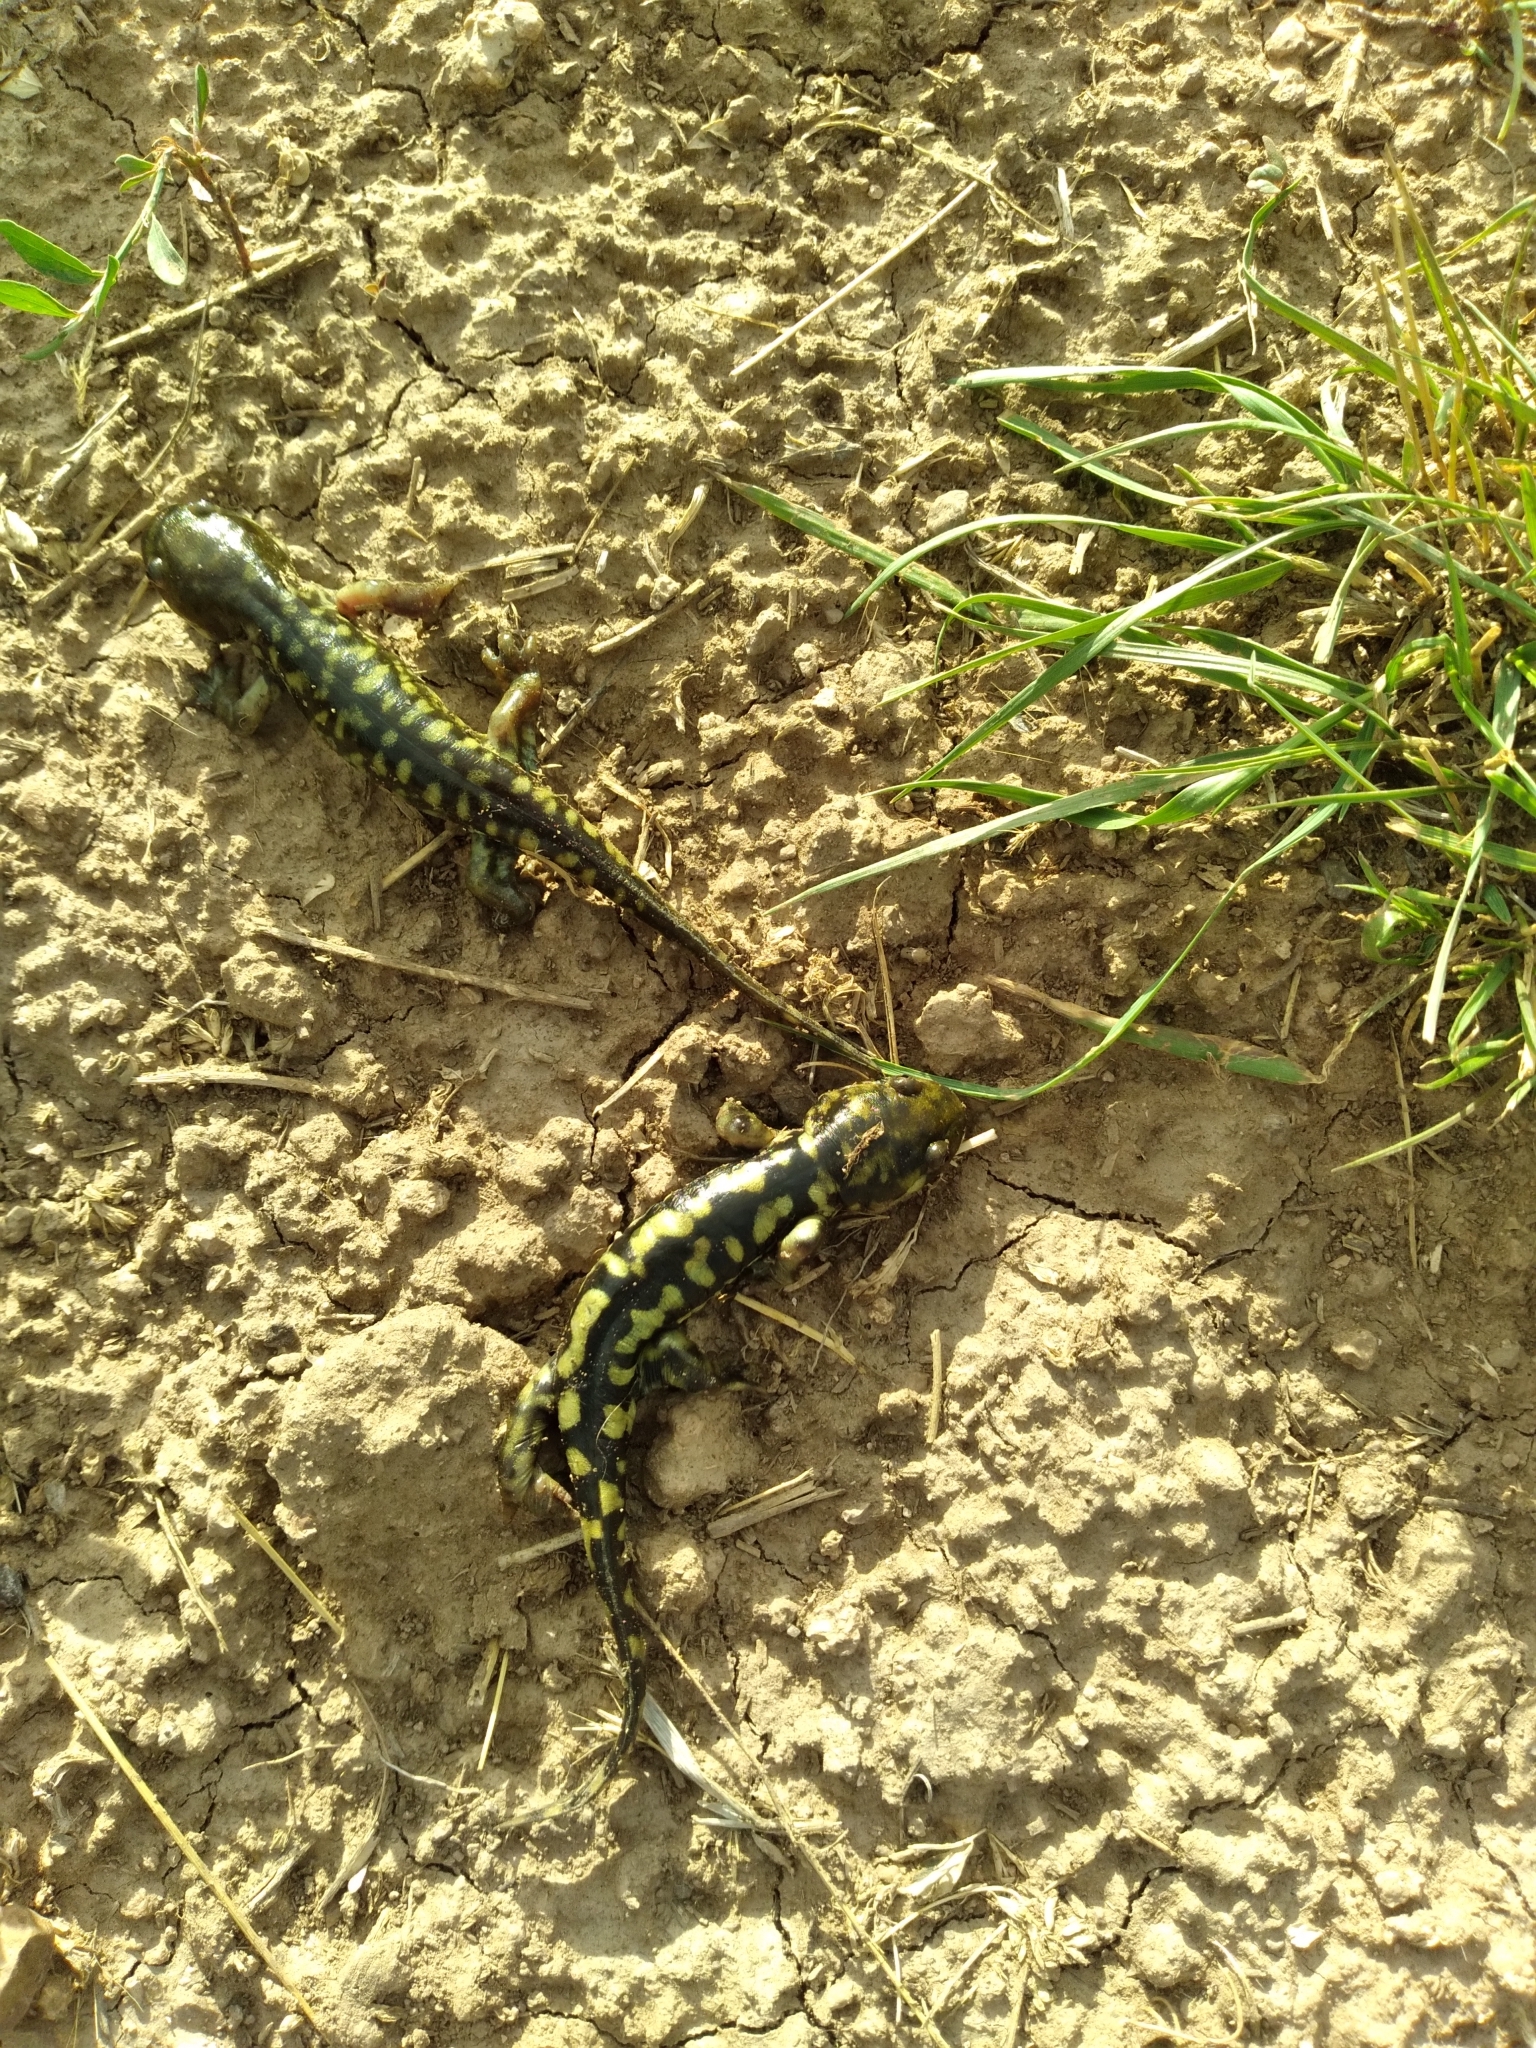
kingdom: Animalia
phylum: Chordata
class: Amphibia
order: Caudata
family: Ambystomatidae
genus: Ambystoma
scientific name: Ambystoma mavortium
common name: Western tiger salamander
